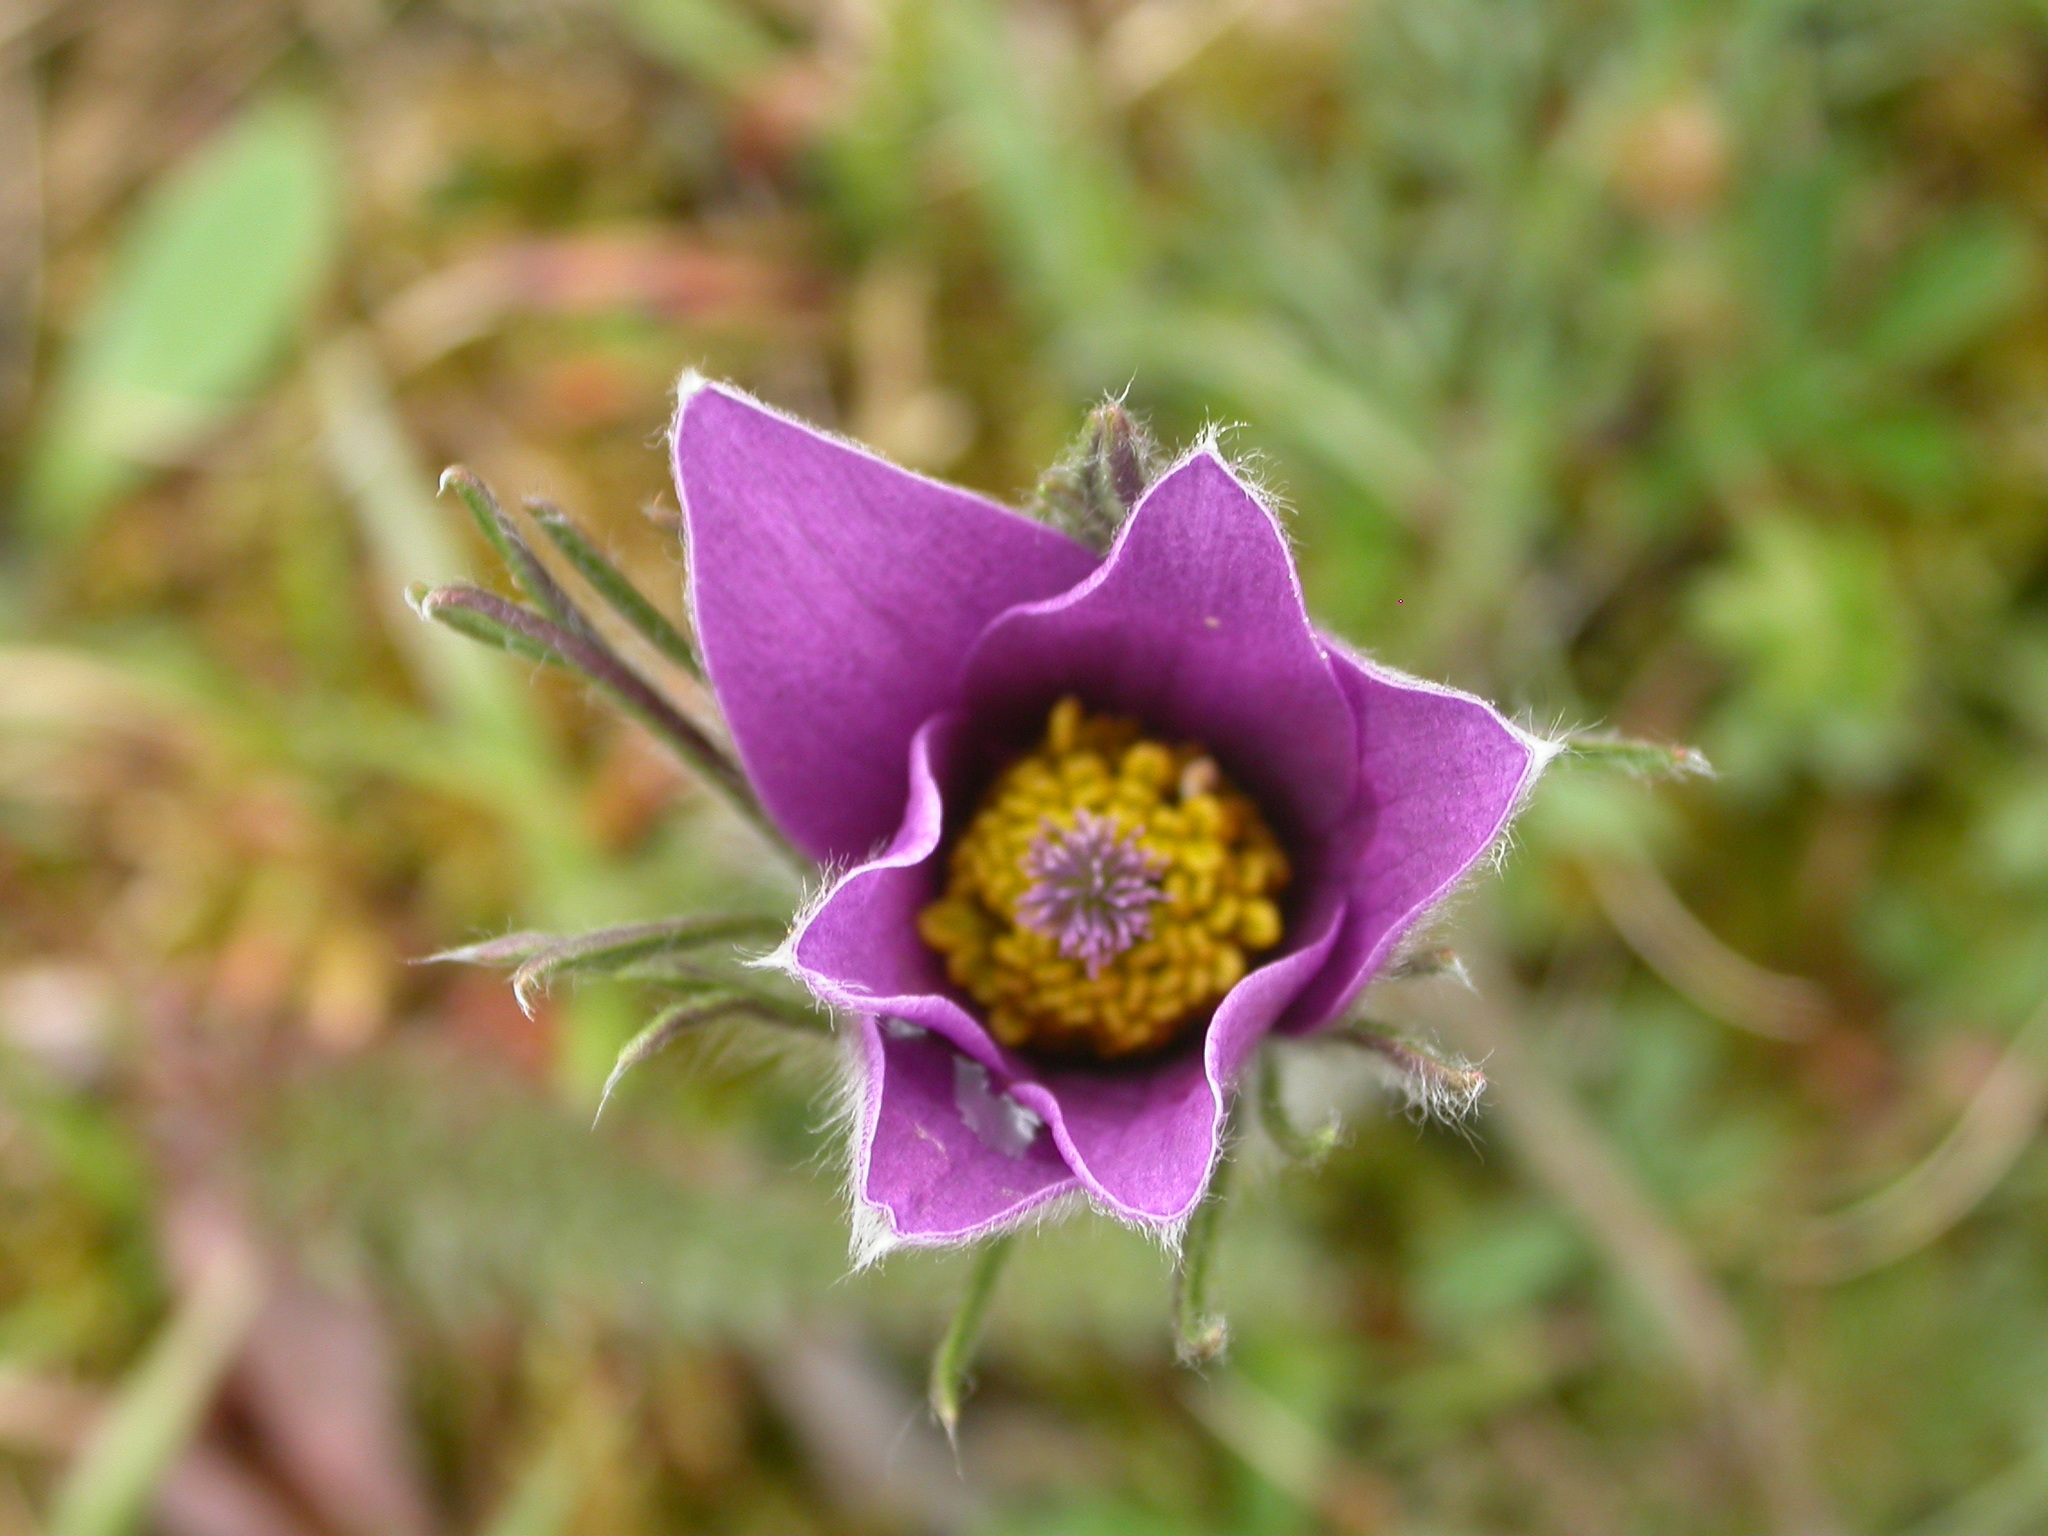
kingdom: Plantae
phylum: Tracheophyta
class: Magnoliopsida
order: Ranunculales
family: Ranunculaceae
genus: Pulsatilla
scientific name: Pulsatilla vulgaris
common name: Pasqueflower
